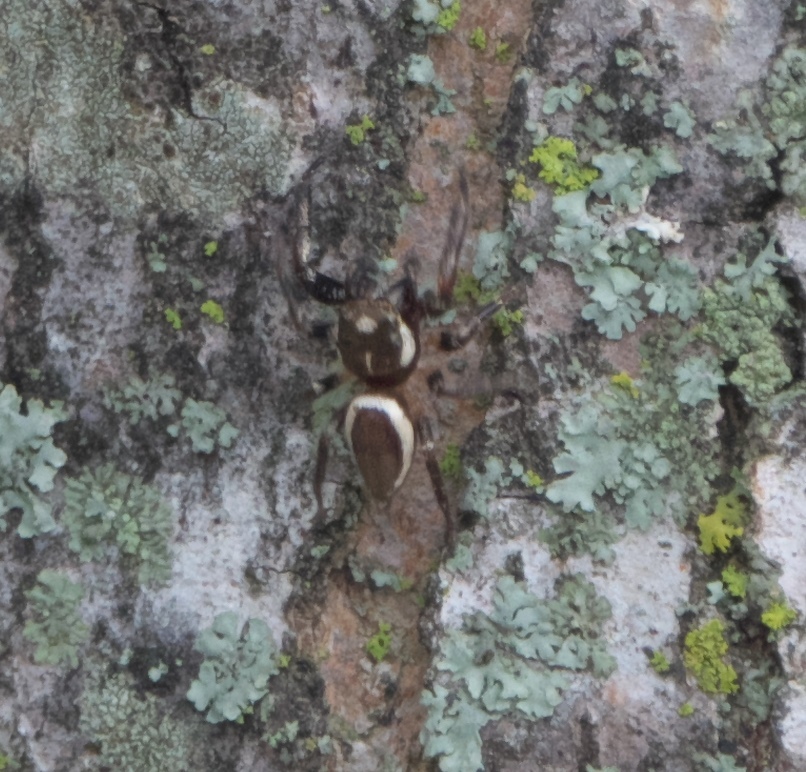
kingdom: Animalia
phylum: Arthropoda
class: Arachnida
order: Araneae
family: Salticidae
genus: Eris
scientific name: Eris militaris
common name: Bronze jumper
